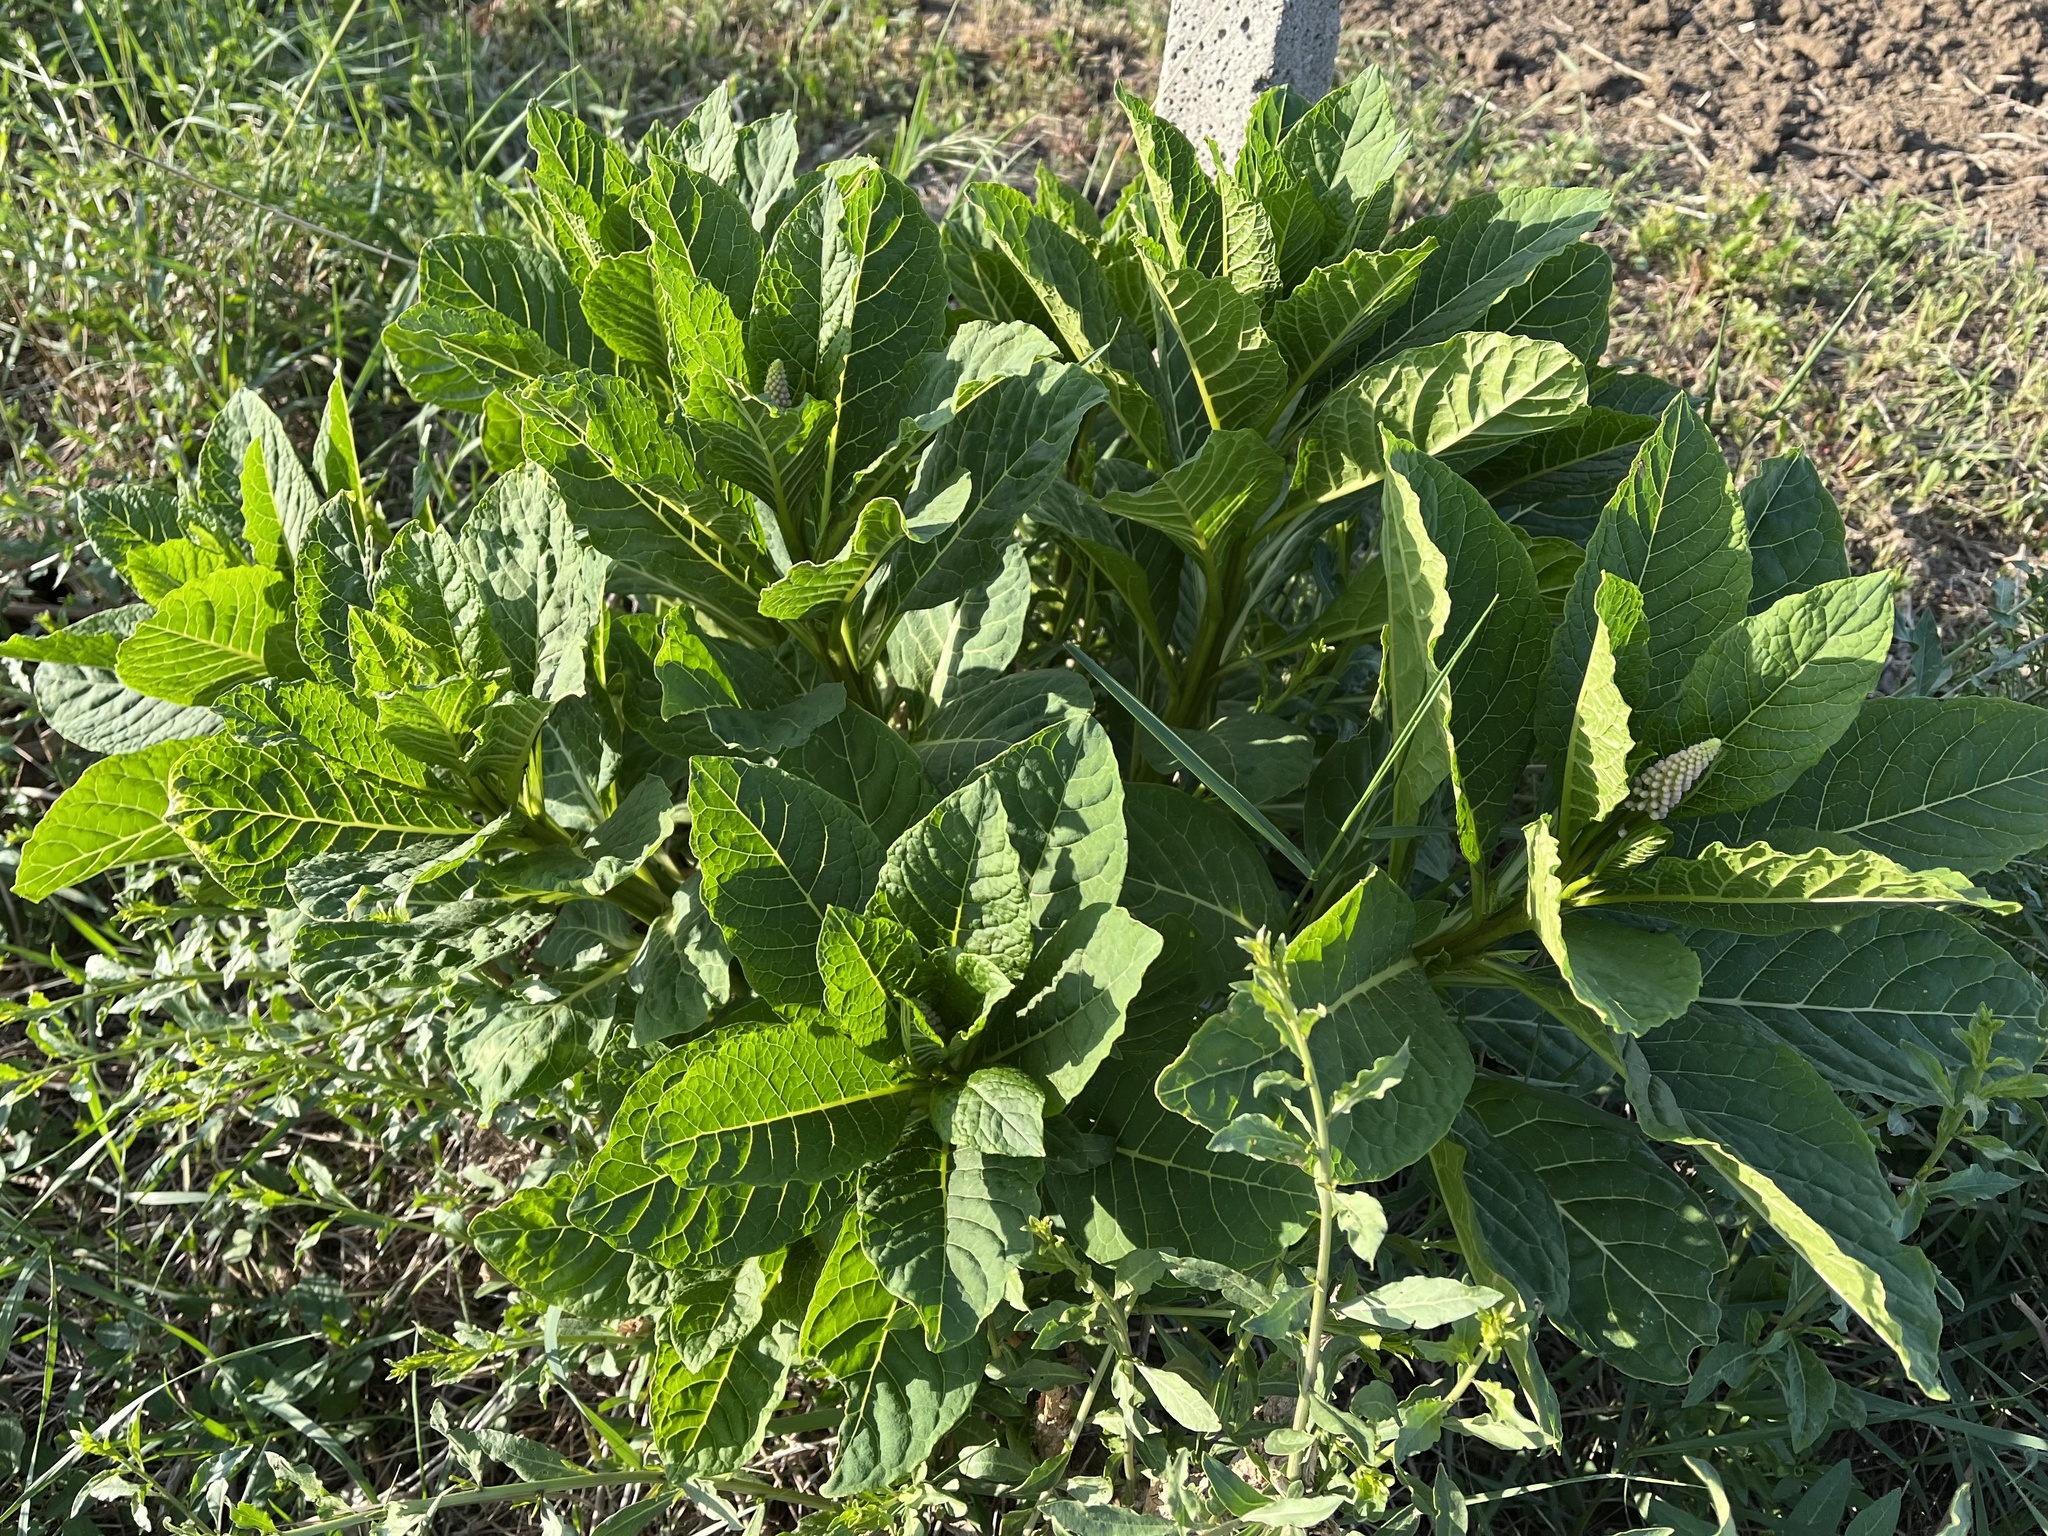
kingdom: Plantae
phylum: Tracheophyta
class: Magnoliopsida
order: Caryophyllales
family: Phytolaccaceae
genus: Phytolacca
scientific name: Phytolacca acinosa
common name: Indian pokeweed
